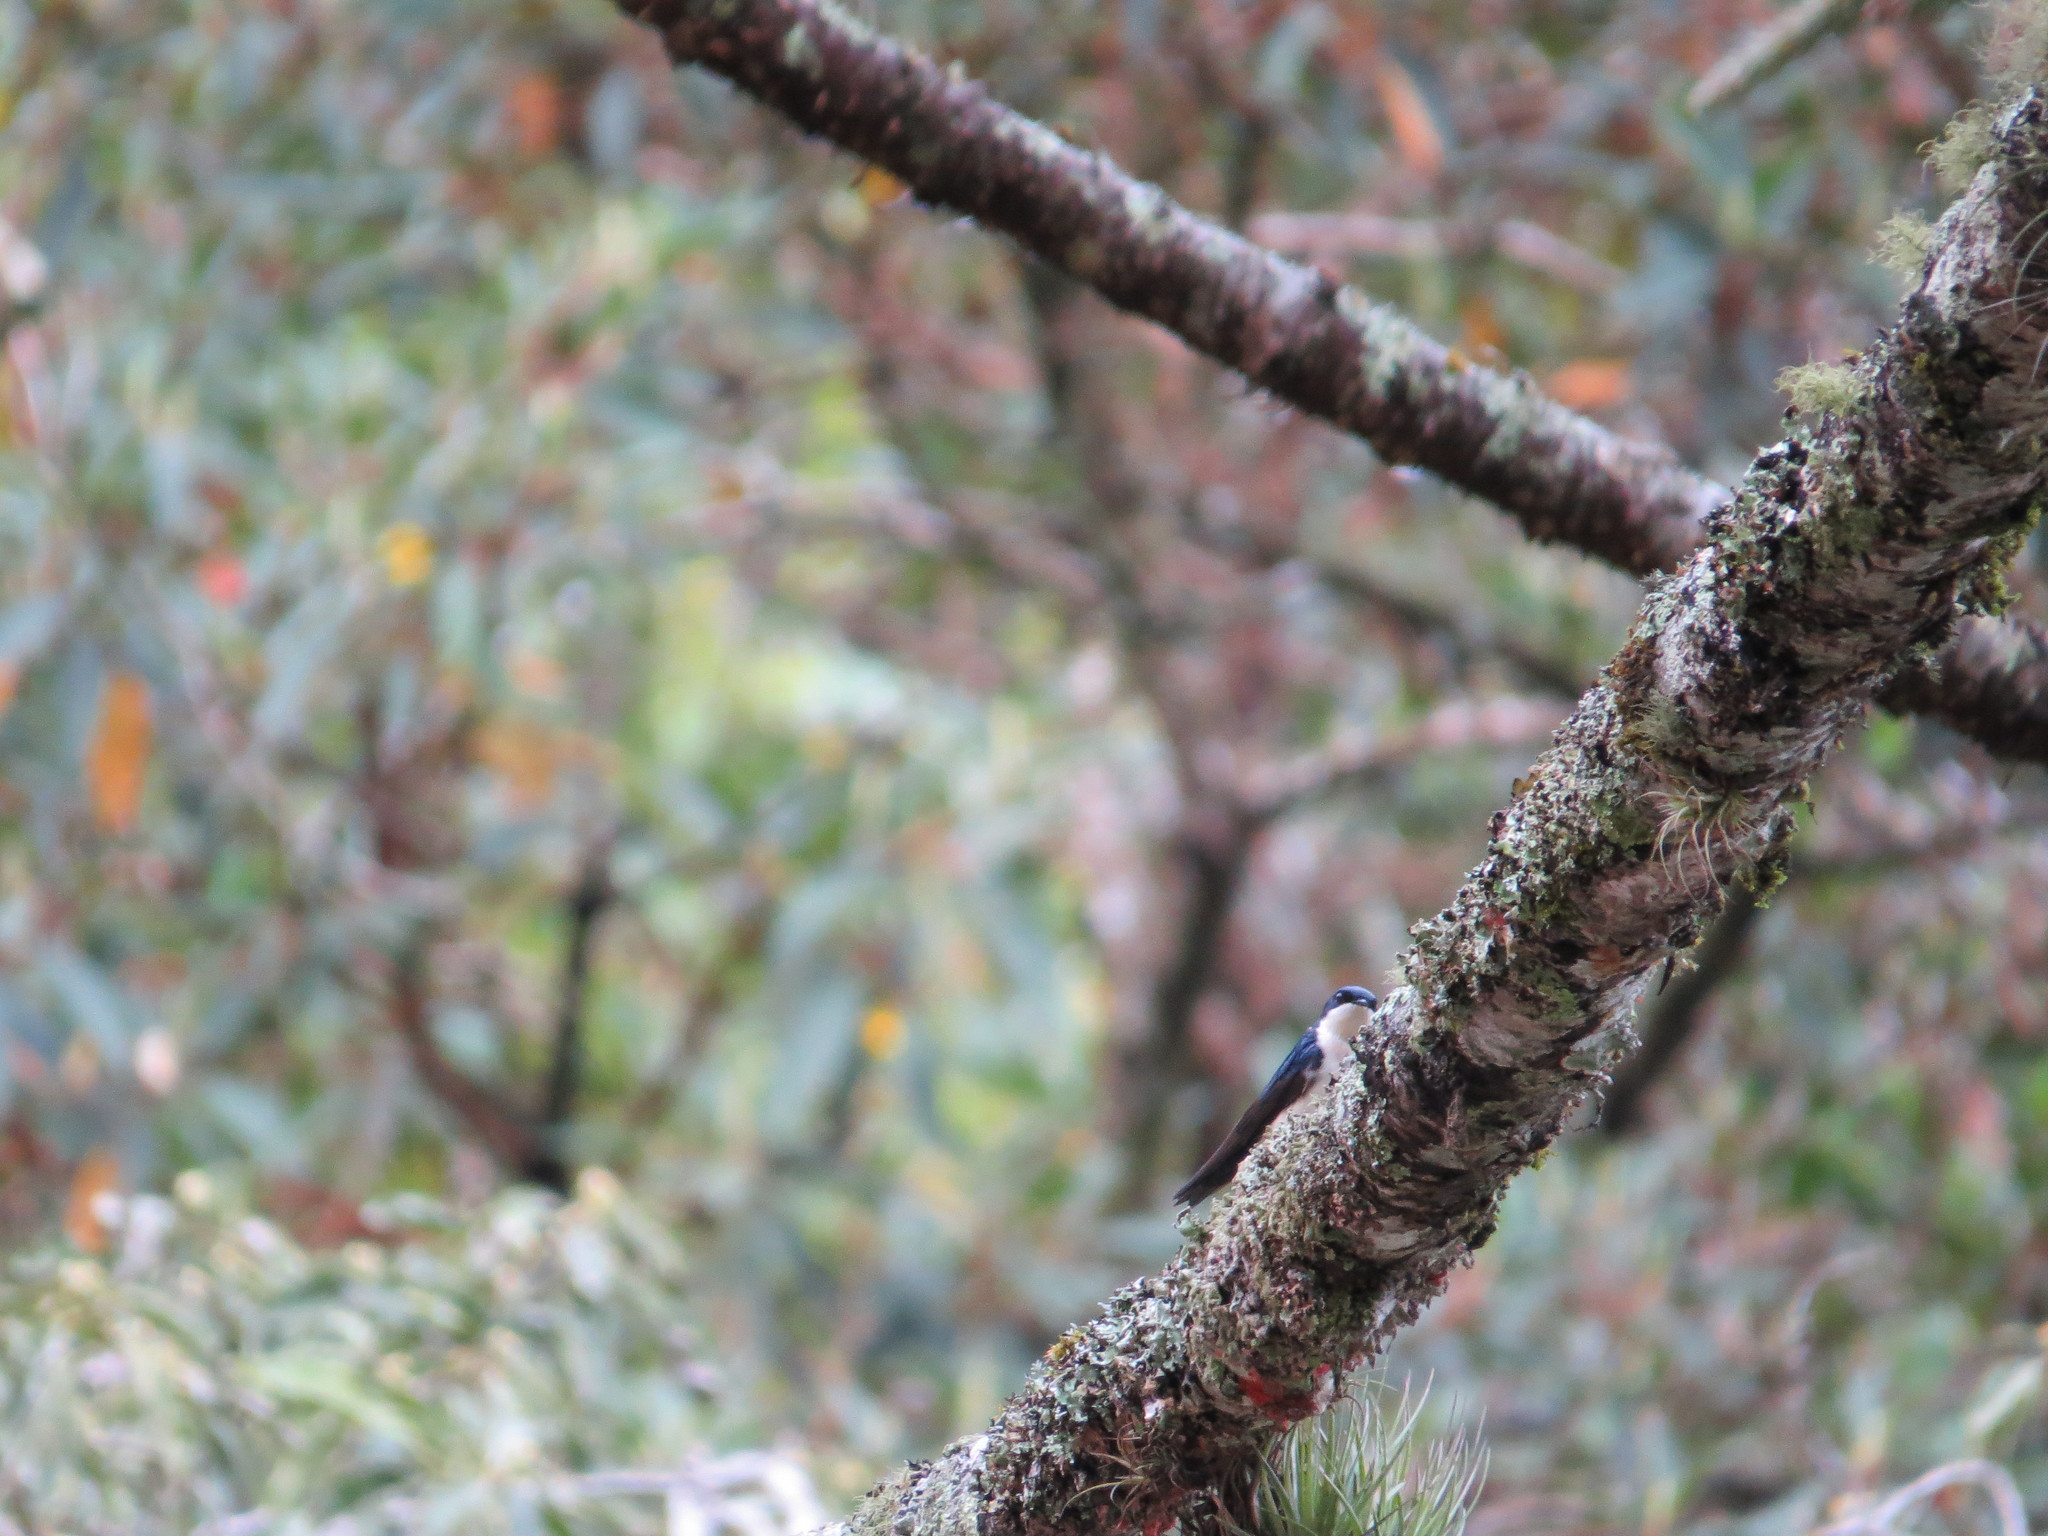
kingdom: Animalia
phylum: Chordata
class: Aves
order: Passeriformes
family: Hirundinidae
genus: Notiochelidon
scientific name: Notiochelidon cyanoleuca
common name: Blue-and-white swallow
